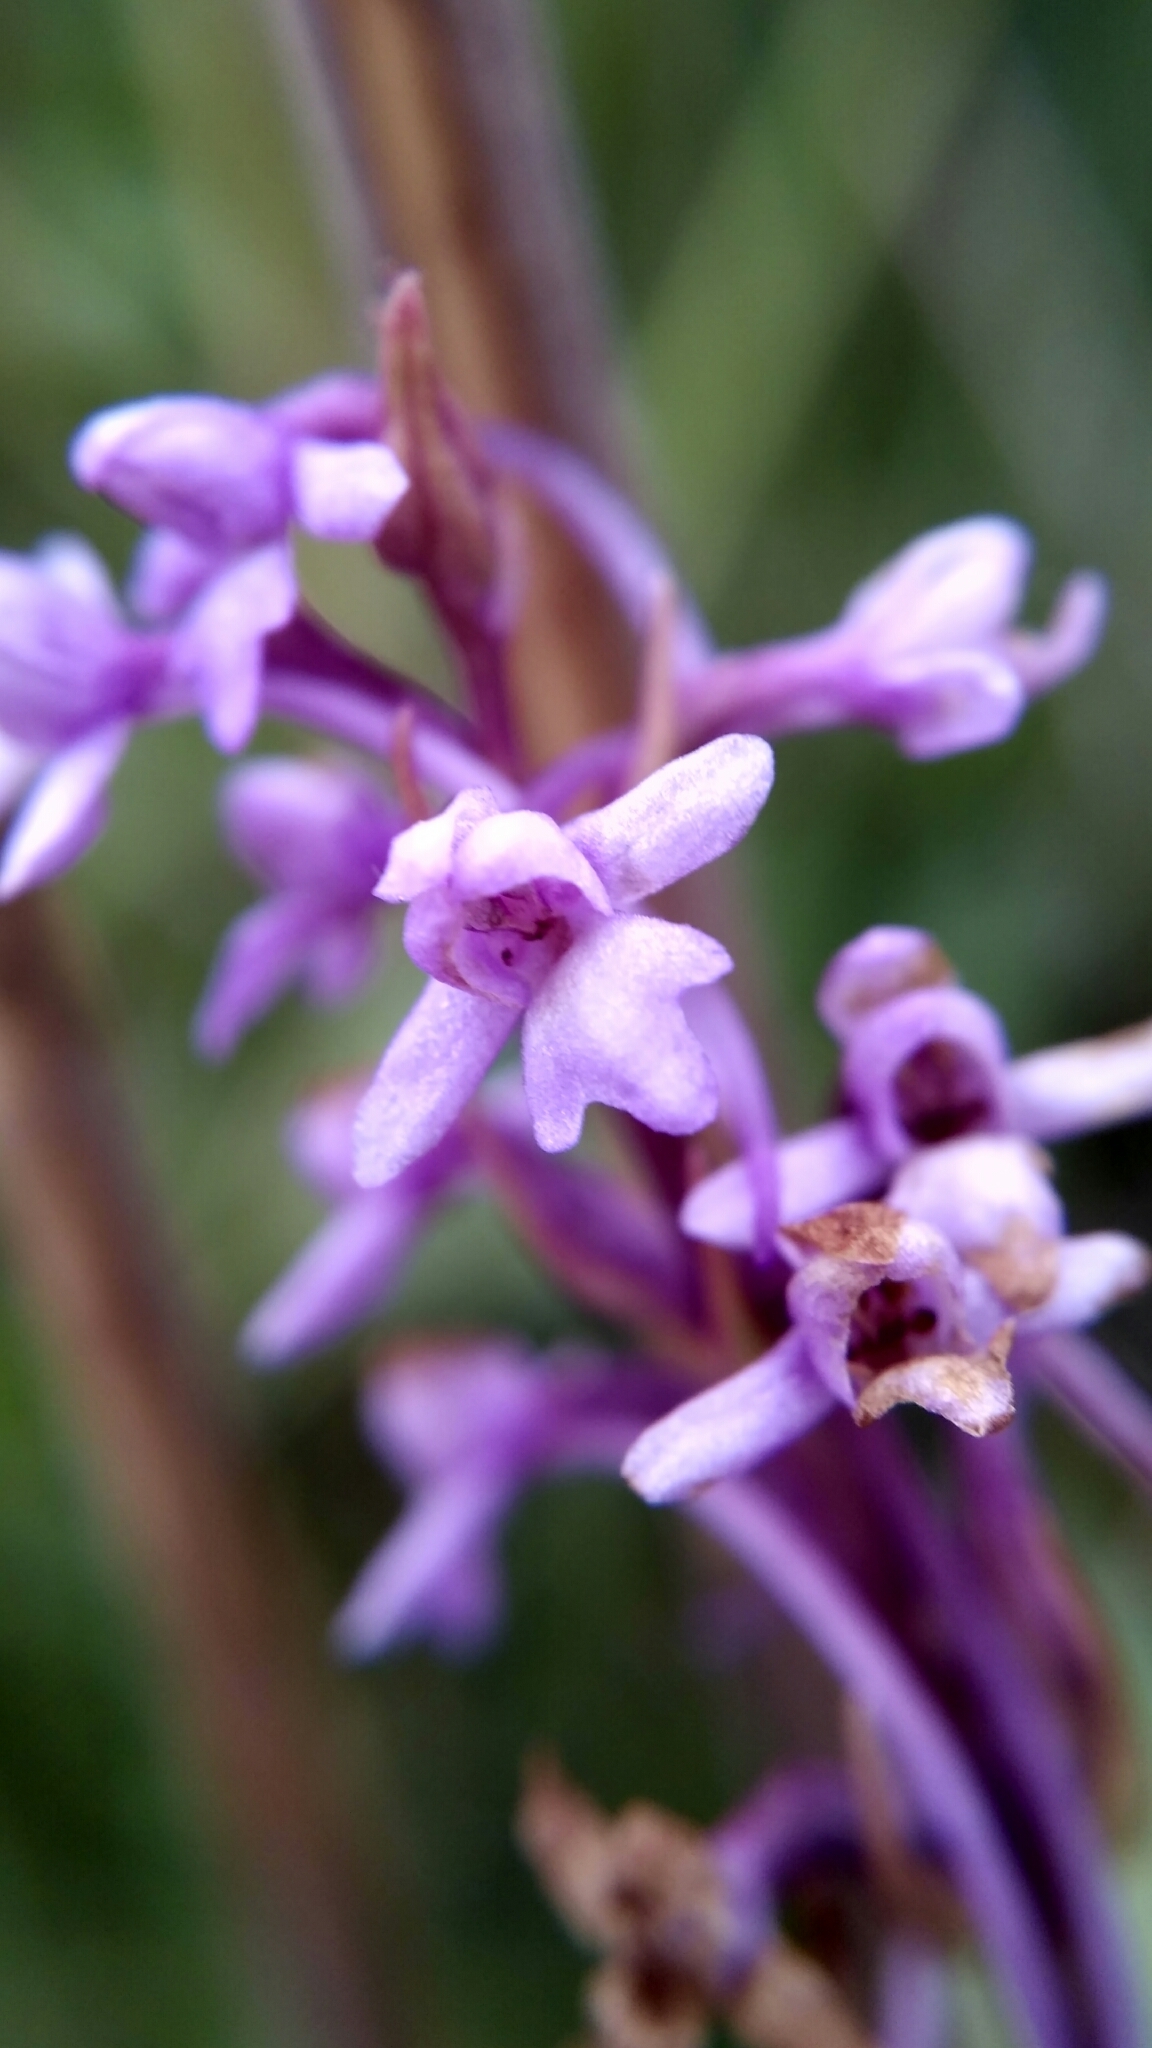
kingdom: Plantae
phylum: Tracheophyta
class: Liliopsida
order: Asparagales
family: Orchidaceae
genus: Gymnadenia
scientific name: Gymnadenia conopsea
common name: Fragrant orchid
